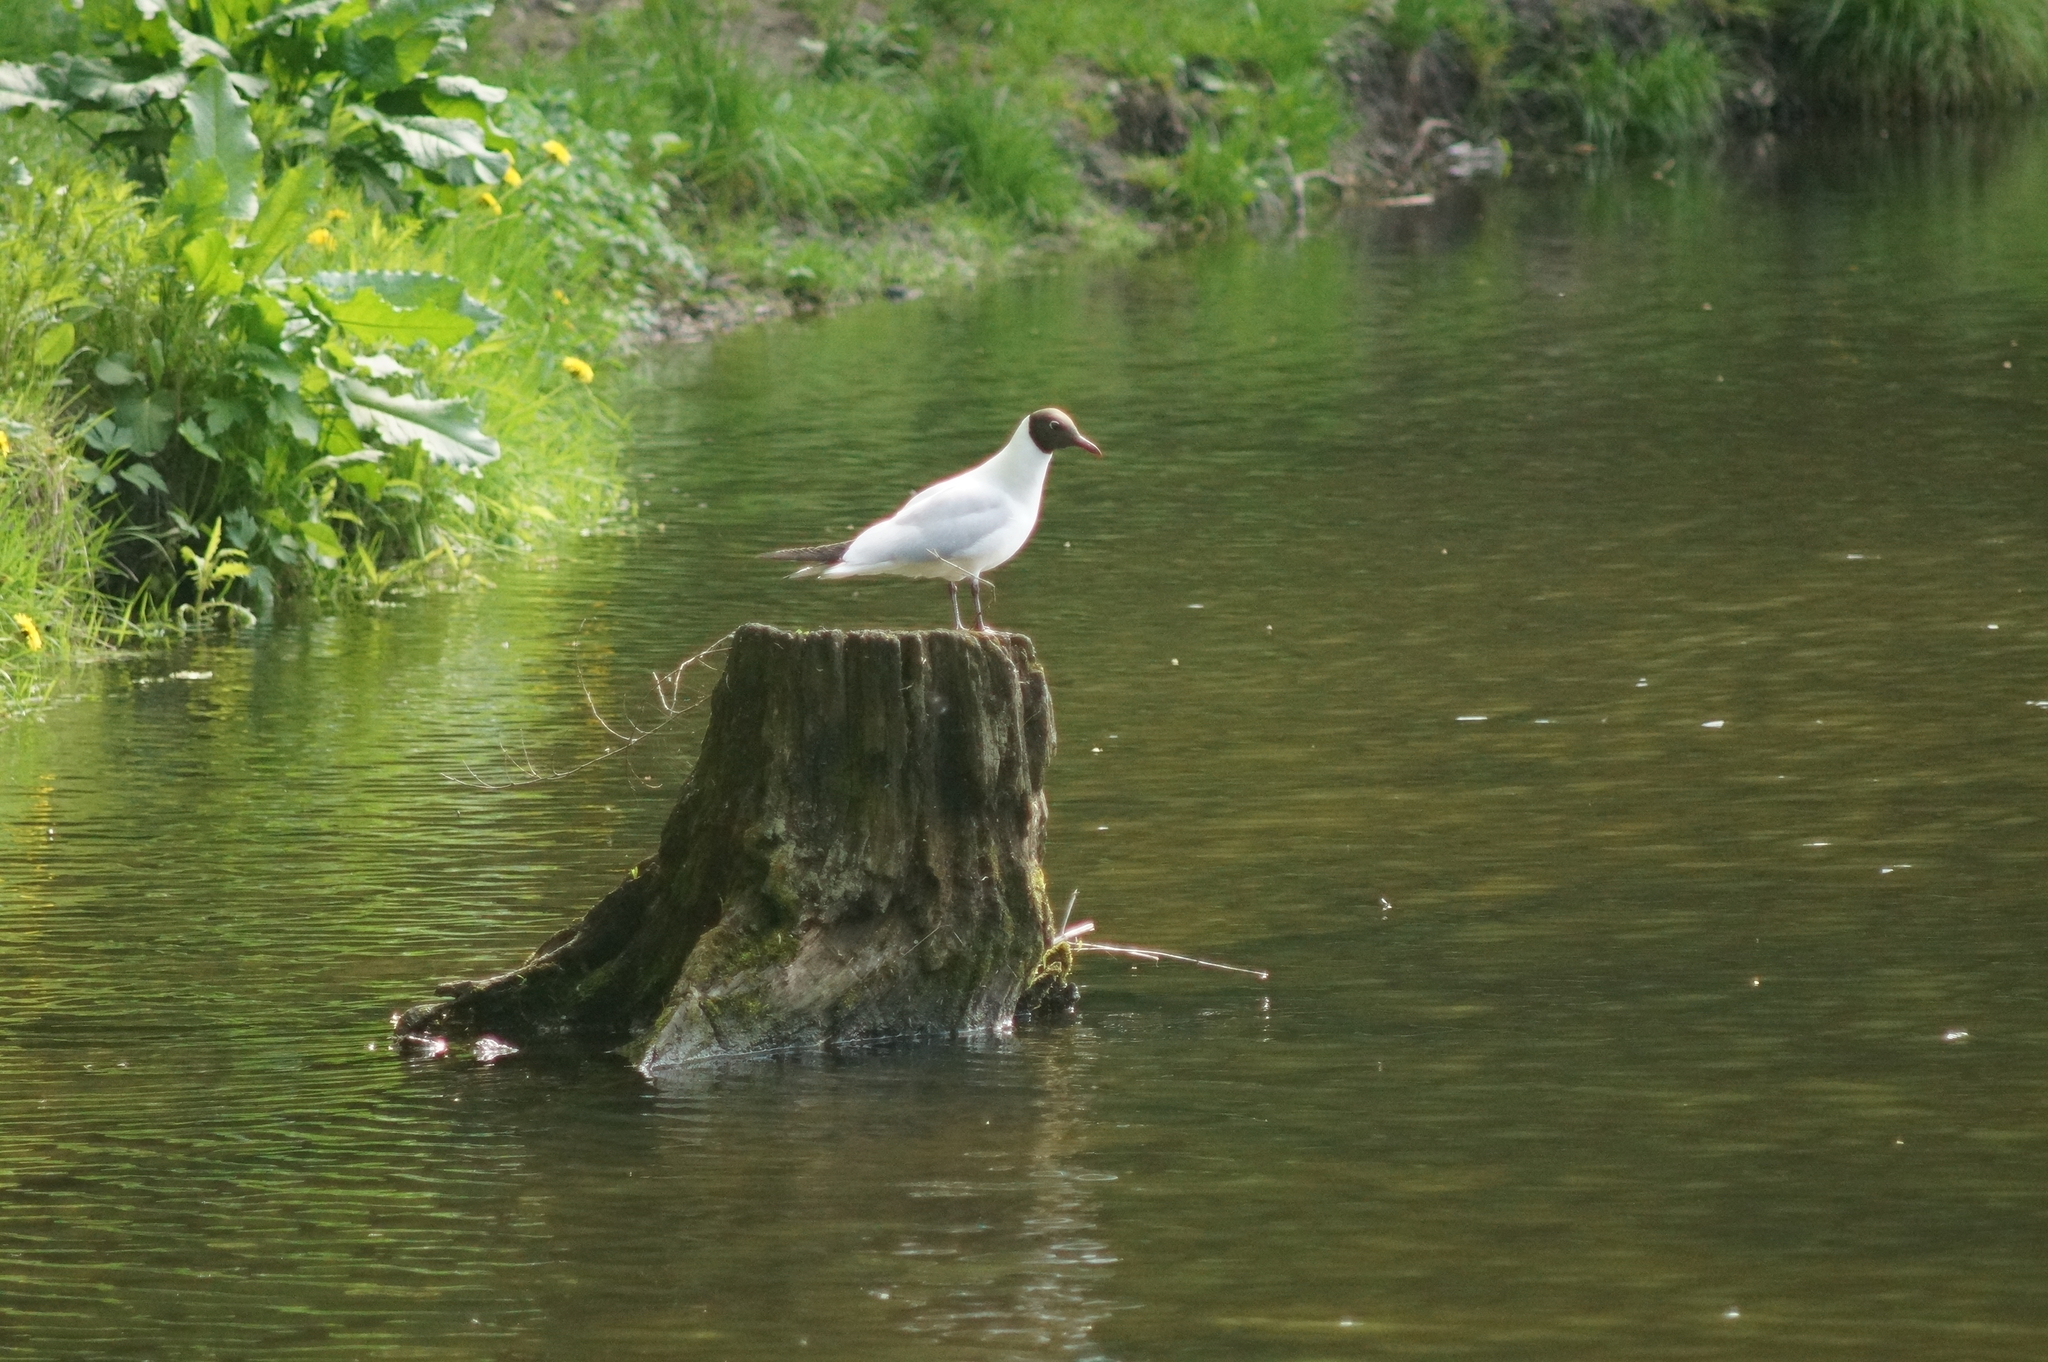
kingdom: Animalia
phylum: Chordata
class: Aves
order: Charadriiformes
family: Laridae
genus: Chroicocephalus
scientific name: Chroicocephalus ridibundus
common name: Black-headed gull
